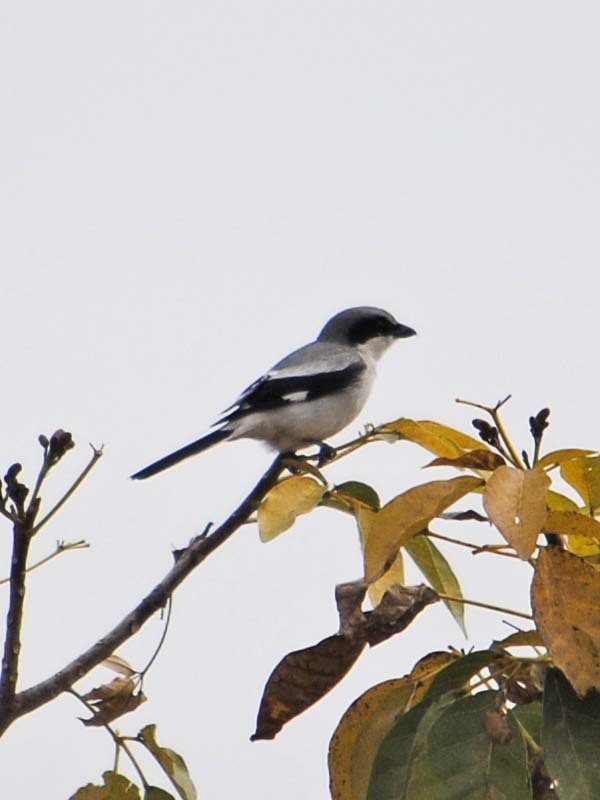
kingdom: Animalia
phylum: Chordata
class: Aves
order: Passeriformes
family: Laniidae
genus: Lanius
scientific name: Lanius ludovicianus
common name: Loggerhead shrike
